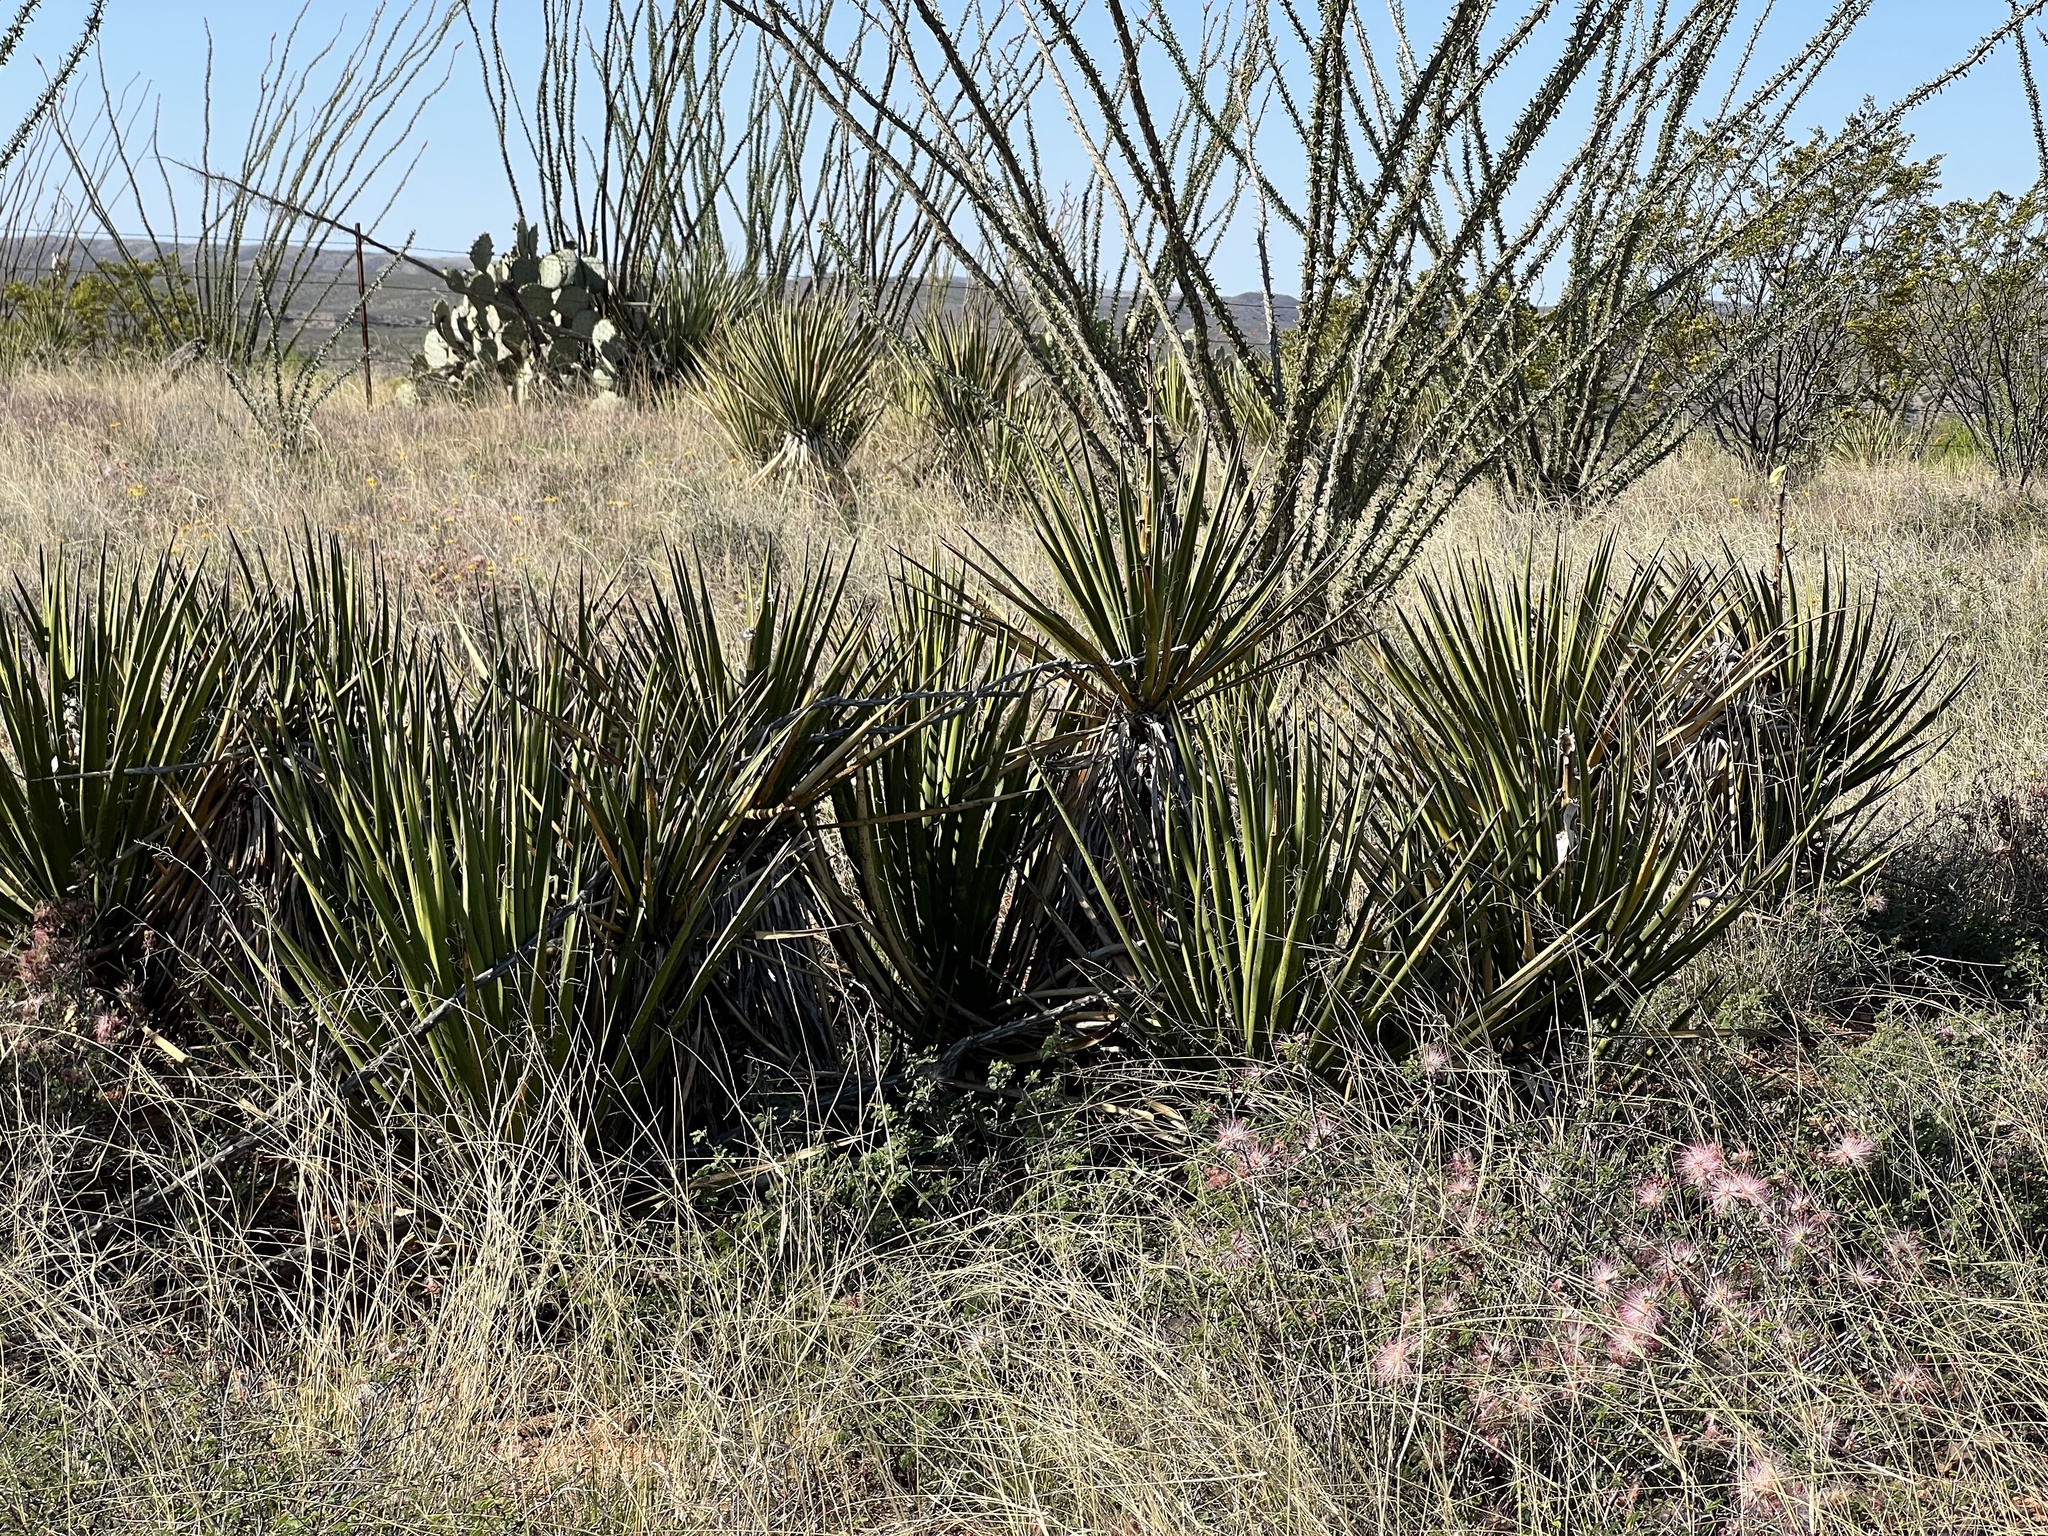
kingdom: Plantae
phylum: Tracheophyta
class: Liliopsida
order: Asparagales
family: Asparagaceae
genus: Yucca
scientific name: Yucca baccata
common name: Banana yucca
